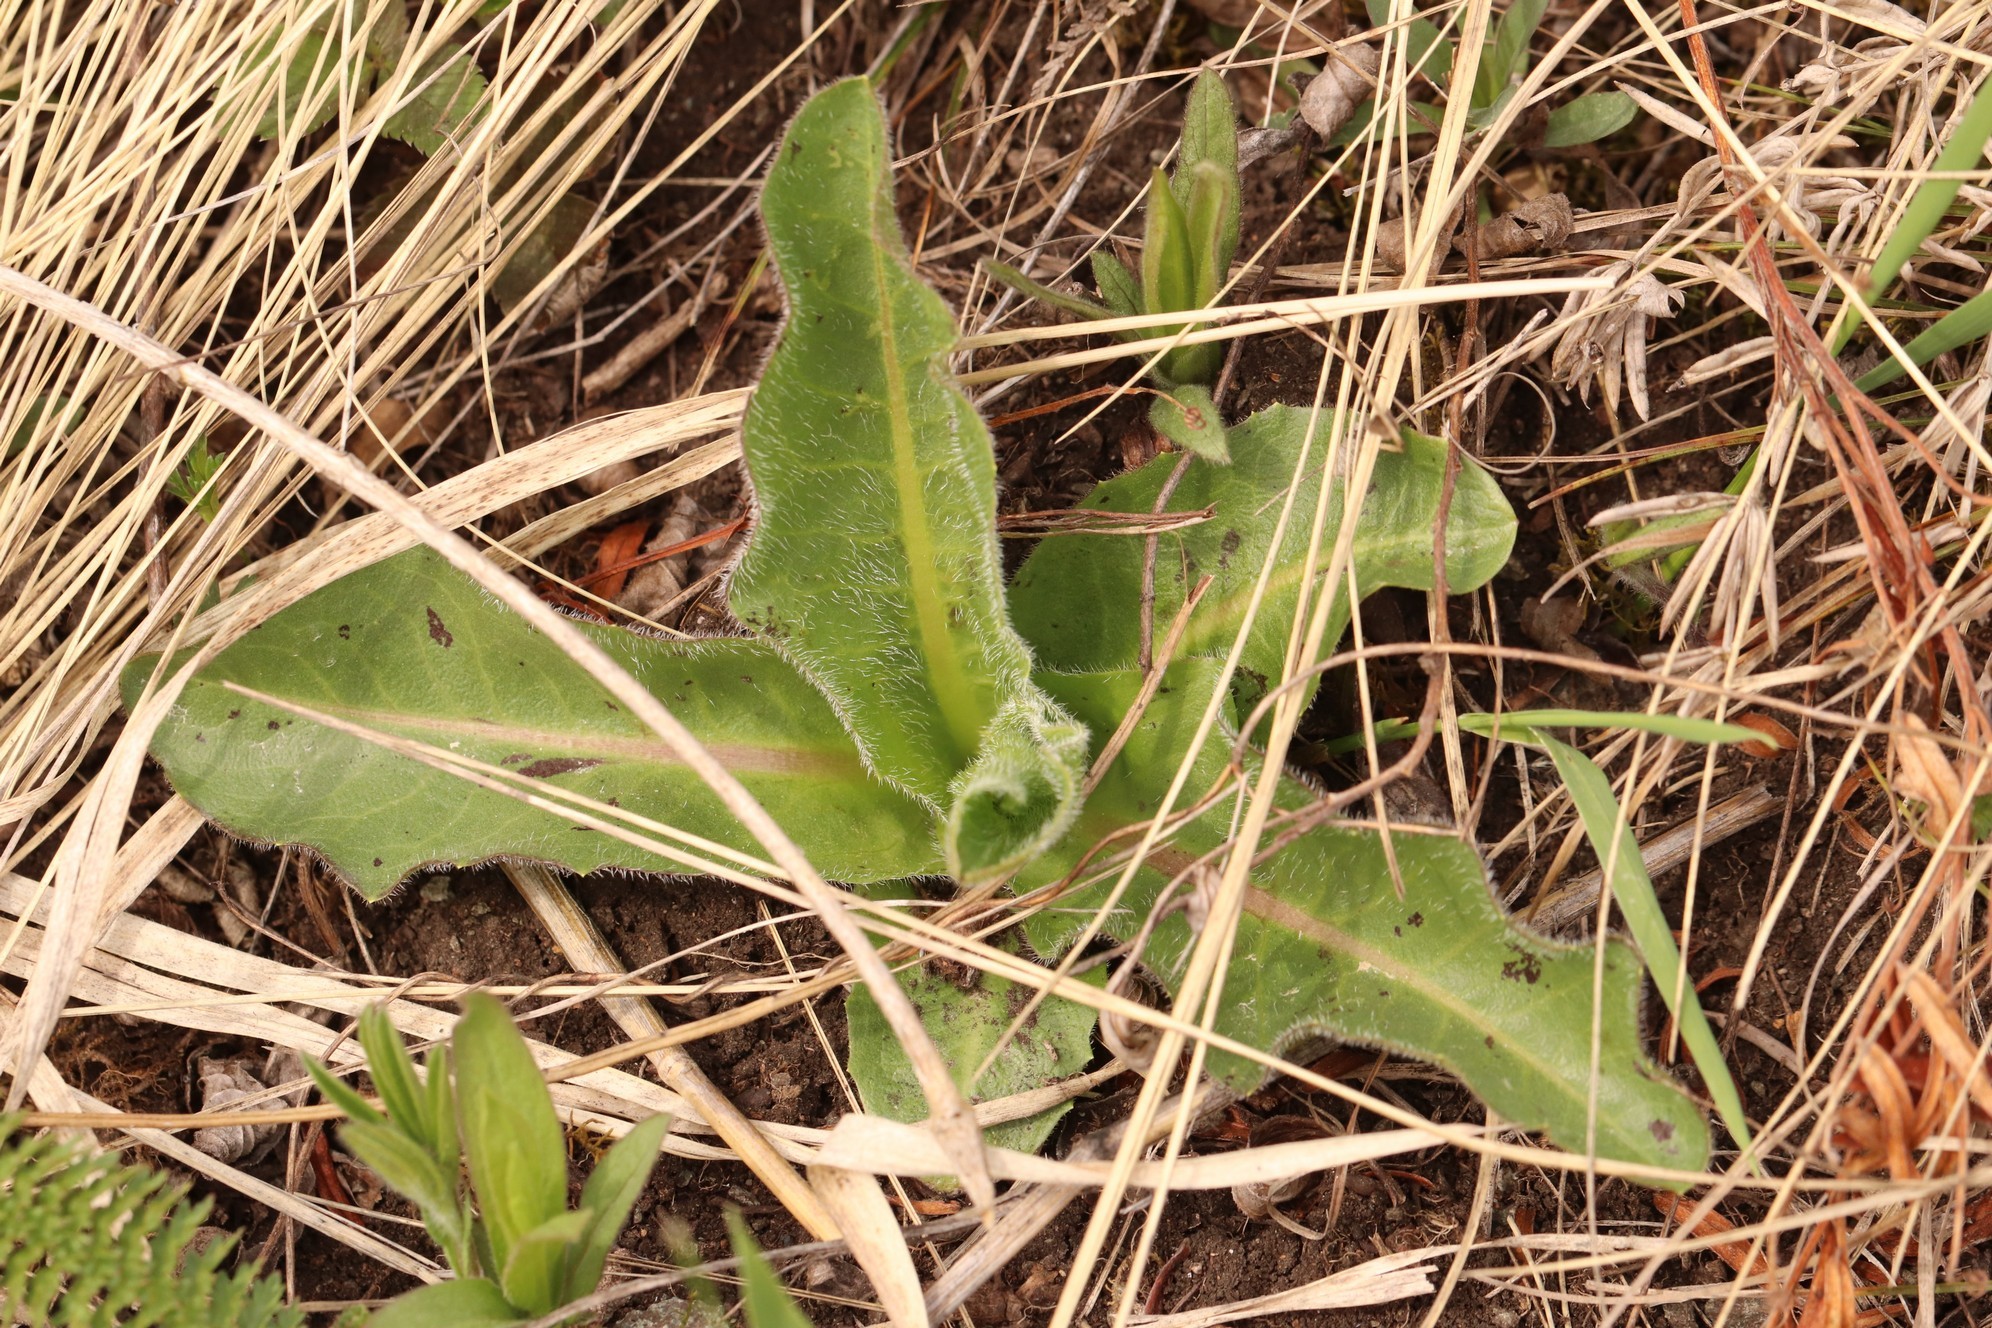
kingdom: Plantae
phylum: Tracheophyta
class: Magnoliopsida
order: Asterales
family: Asteraceae
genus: Trommsdorffia
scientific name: Trommsdorffia maculata
